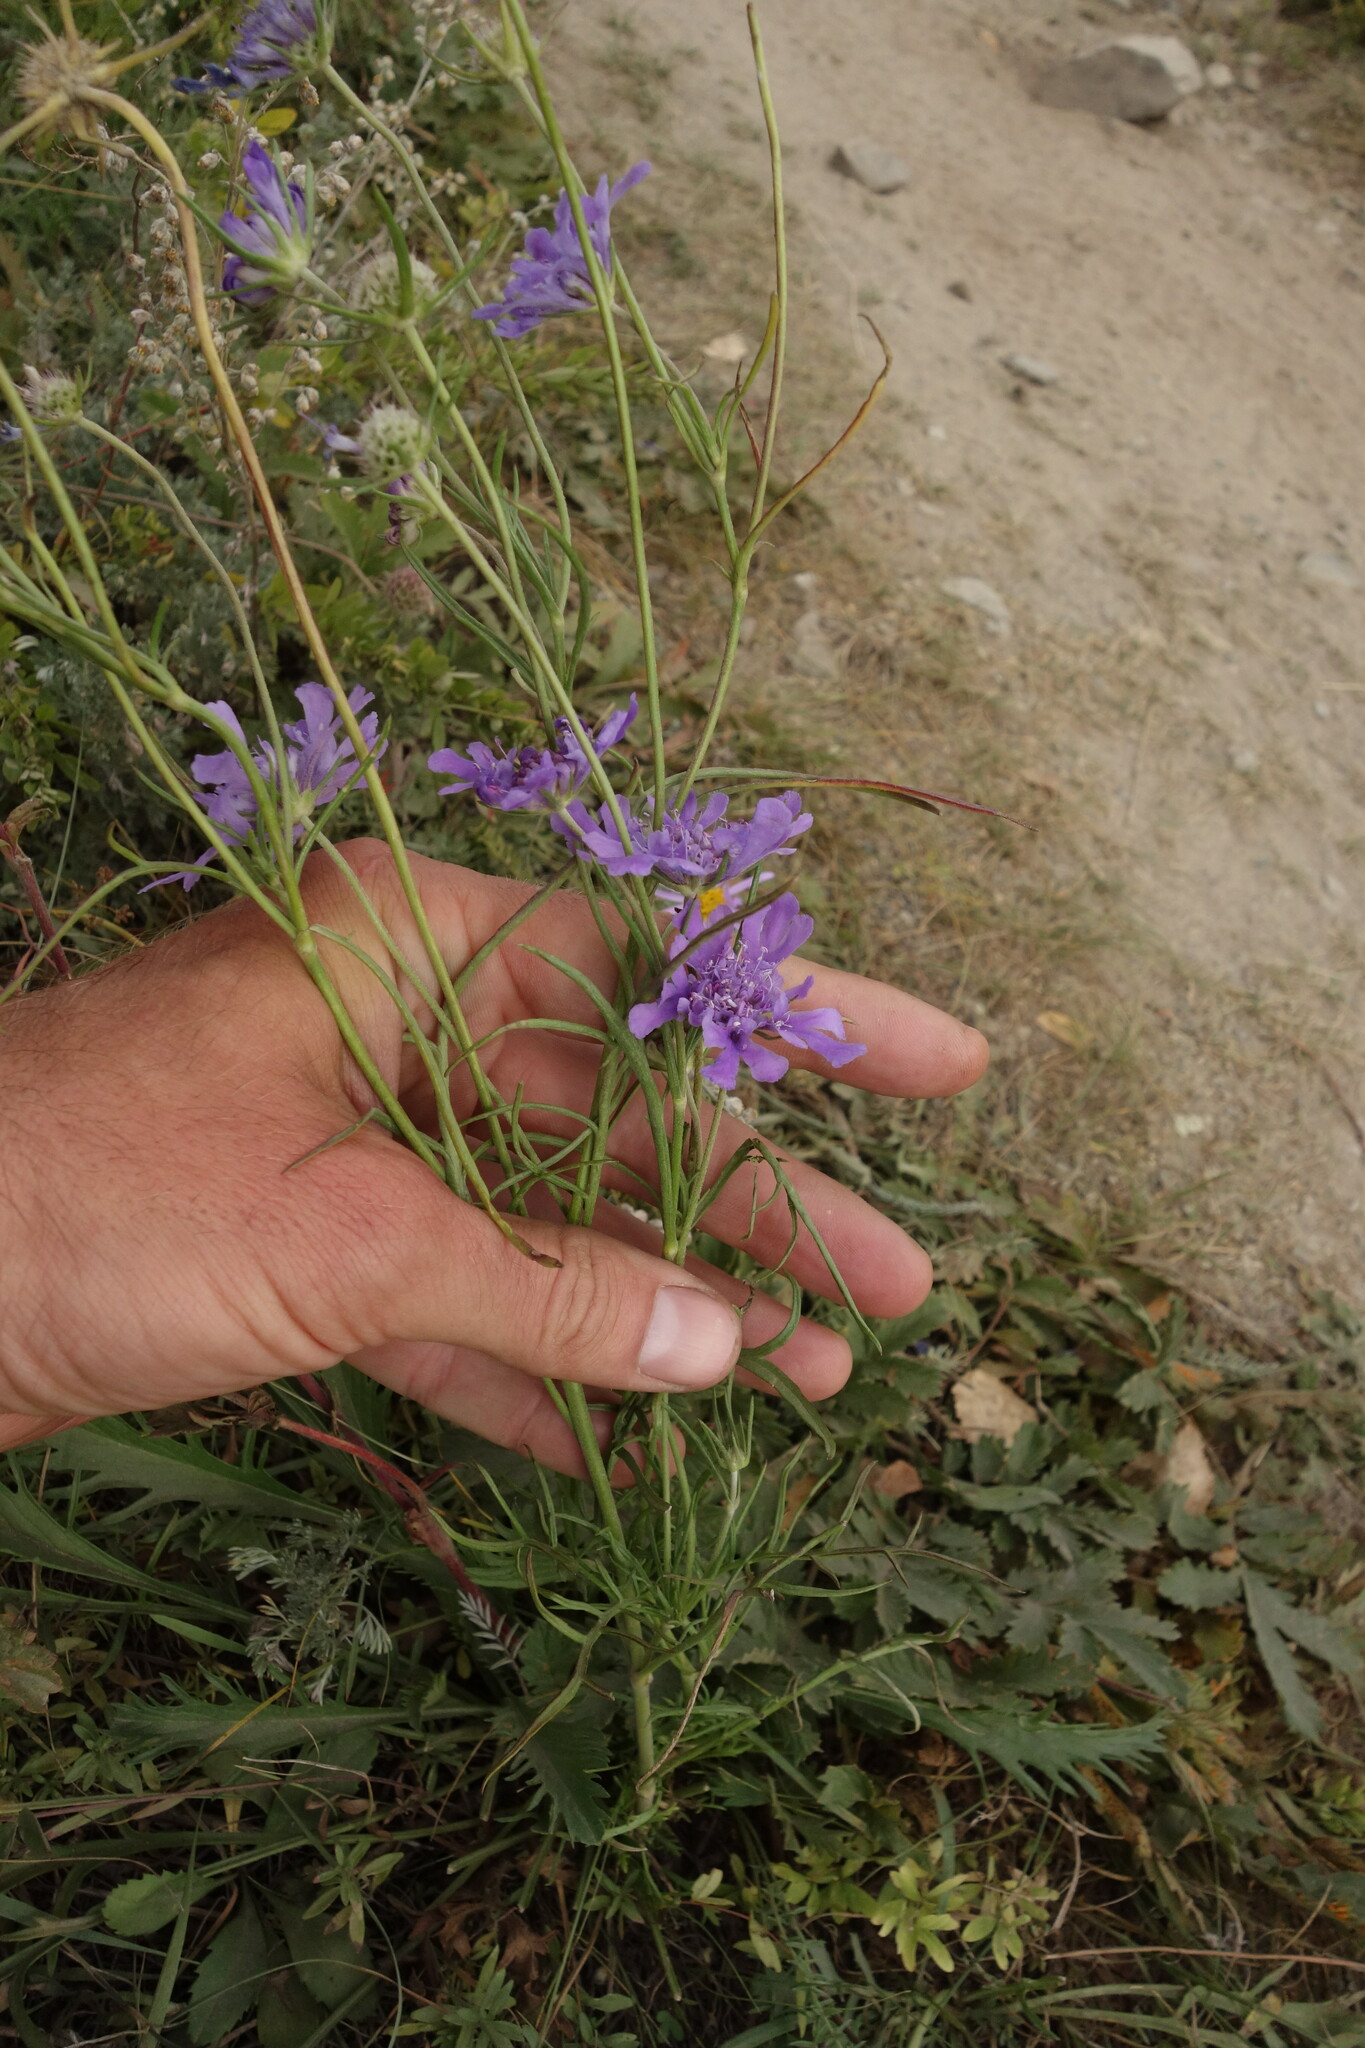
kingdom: Plantae
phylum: Tracheophyta
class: Magnoliopsida
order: Dipsacales
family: Caprifoliaceae
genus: Scabiosa
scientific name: Scabiosa comosa
